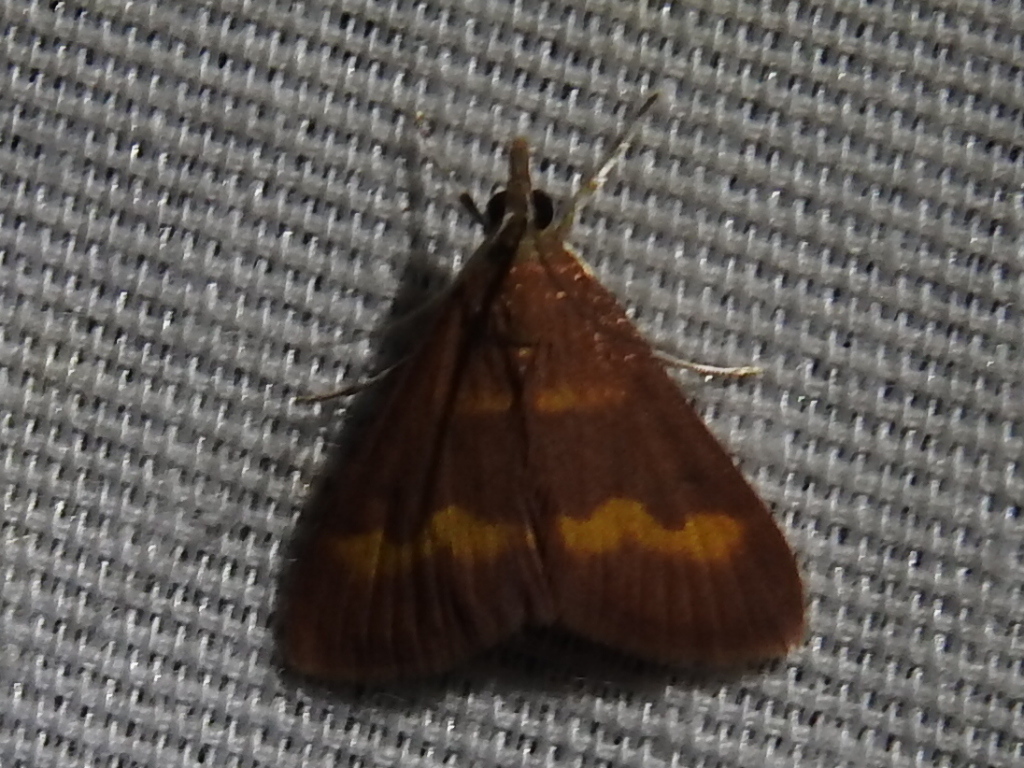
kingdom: Animalia
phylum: Arthropoda
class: Insecta
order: Lepidoptera
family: Crambidae
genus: Pyrausta
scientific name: Pyrausta pseuderosnealis
